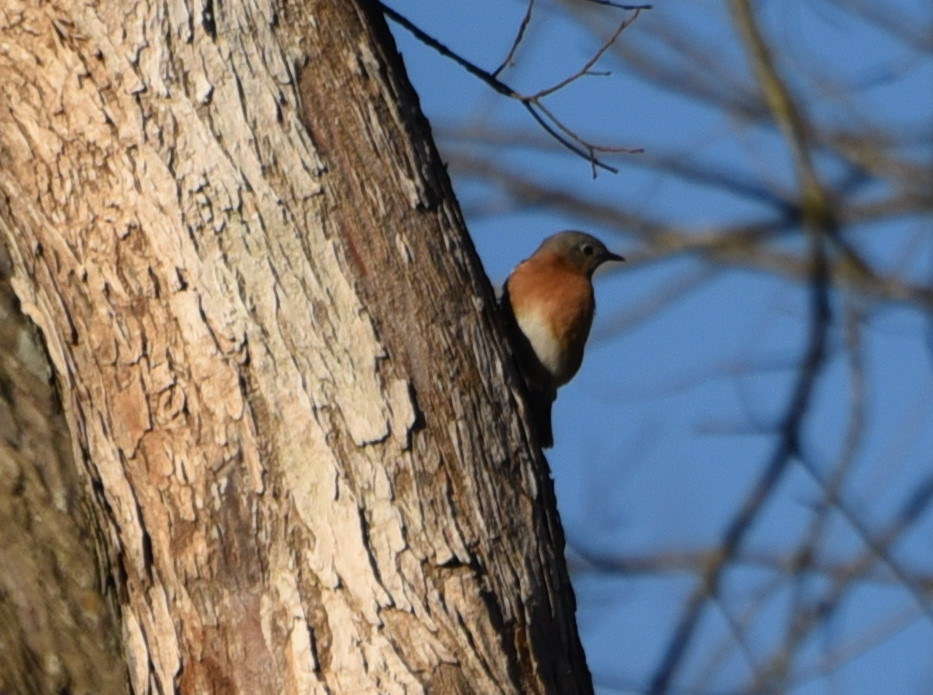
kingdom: Animalia
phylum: Chordata
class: Aves
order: Passeriformes
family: Turdidae
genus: Sialia
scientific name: Sialia sialis
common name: Eastern bluebird
